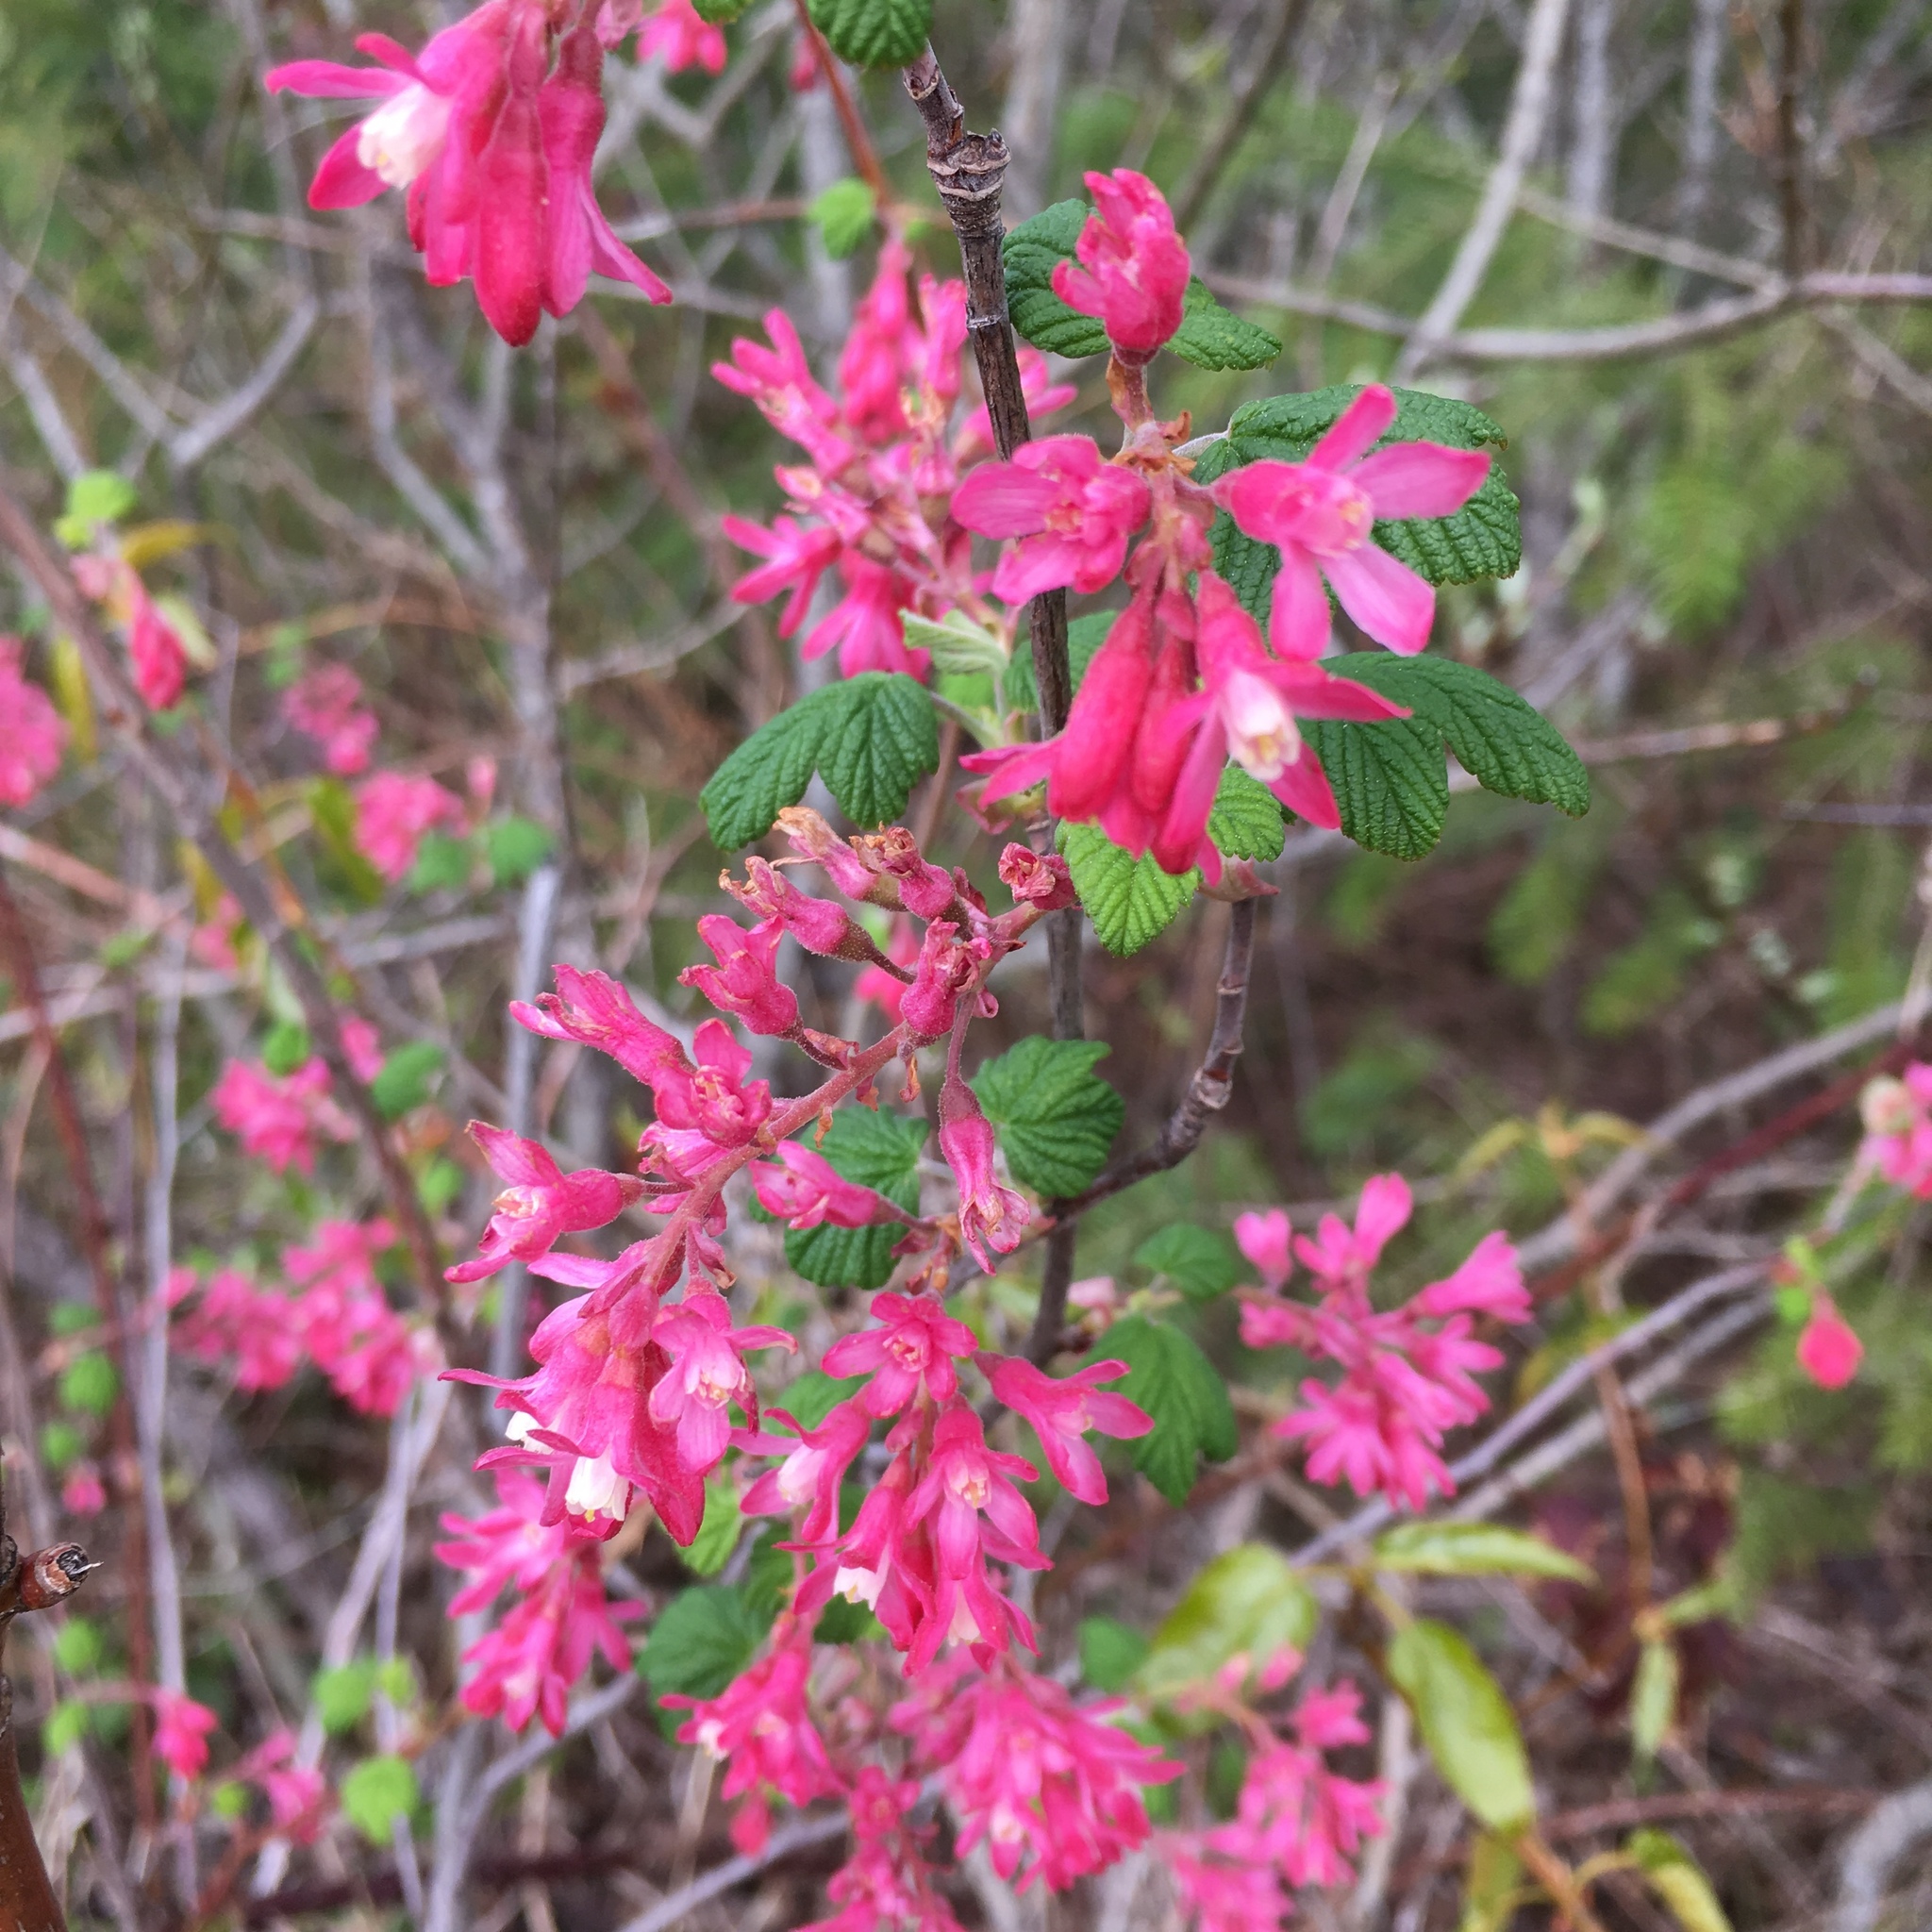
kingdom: Plantae
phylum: Tracheophyta
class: Magnoliopsida
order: Saxifragales
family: Grossulariaceae
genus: Ribes
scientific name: Ribes sanguineum
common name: Flowering currant
